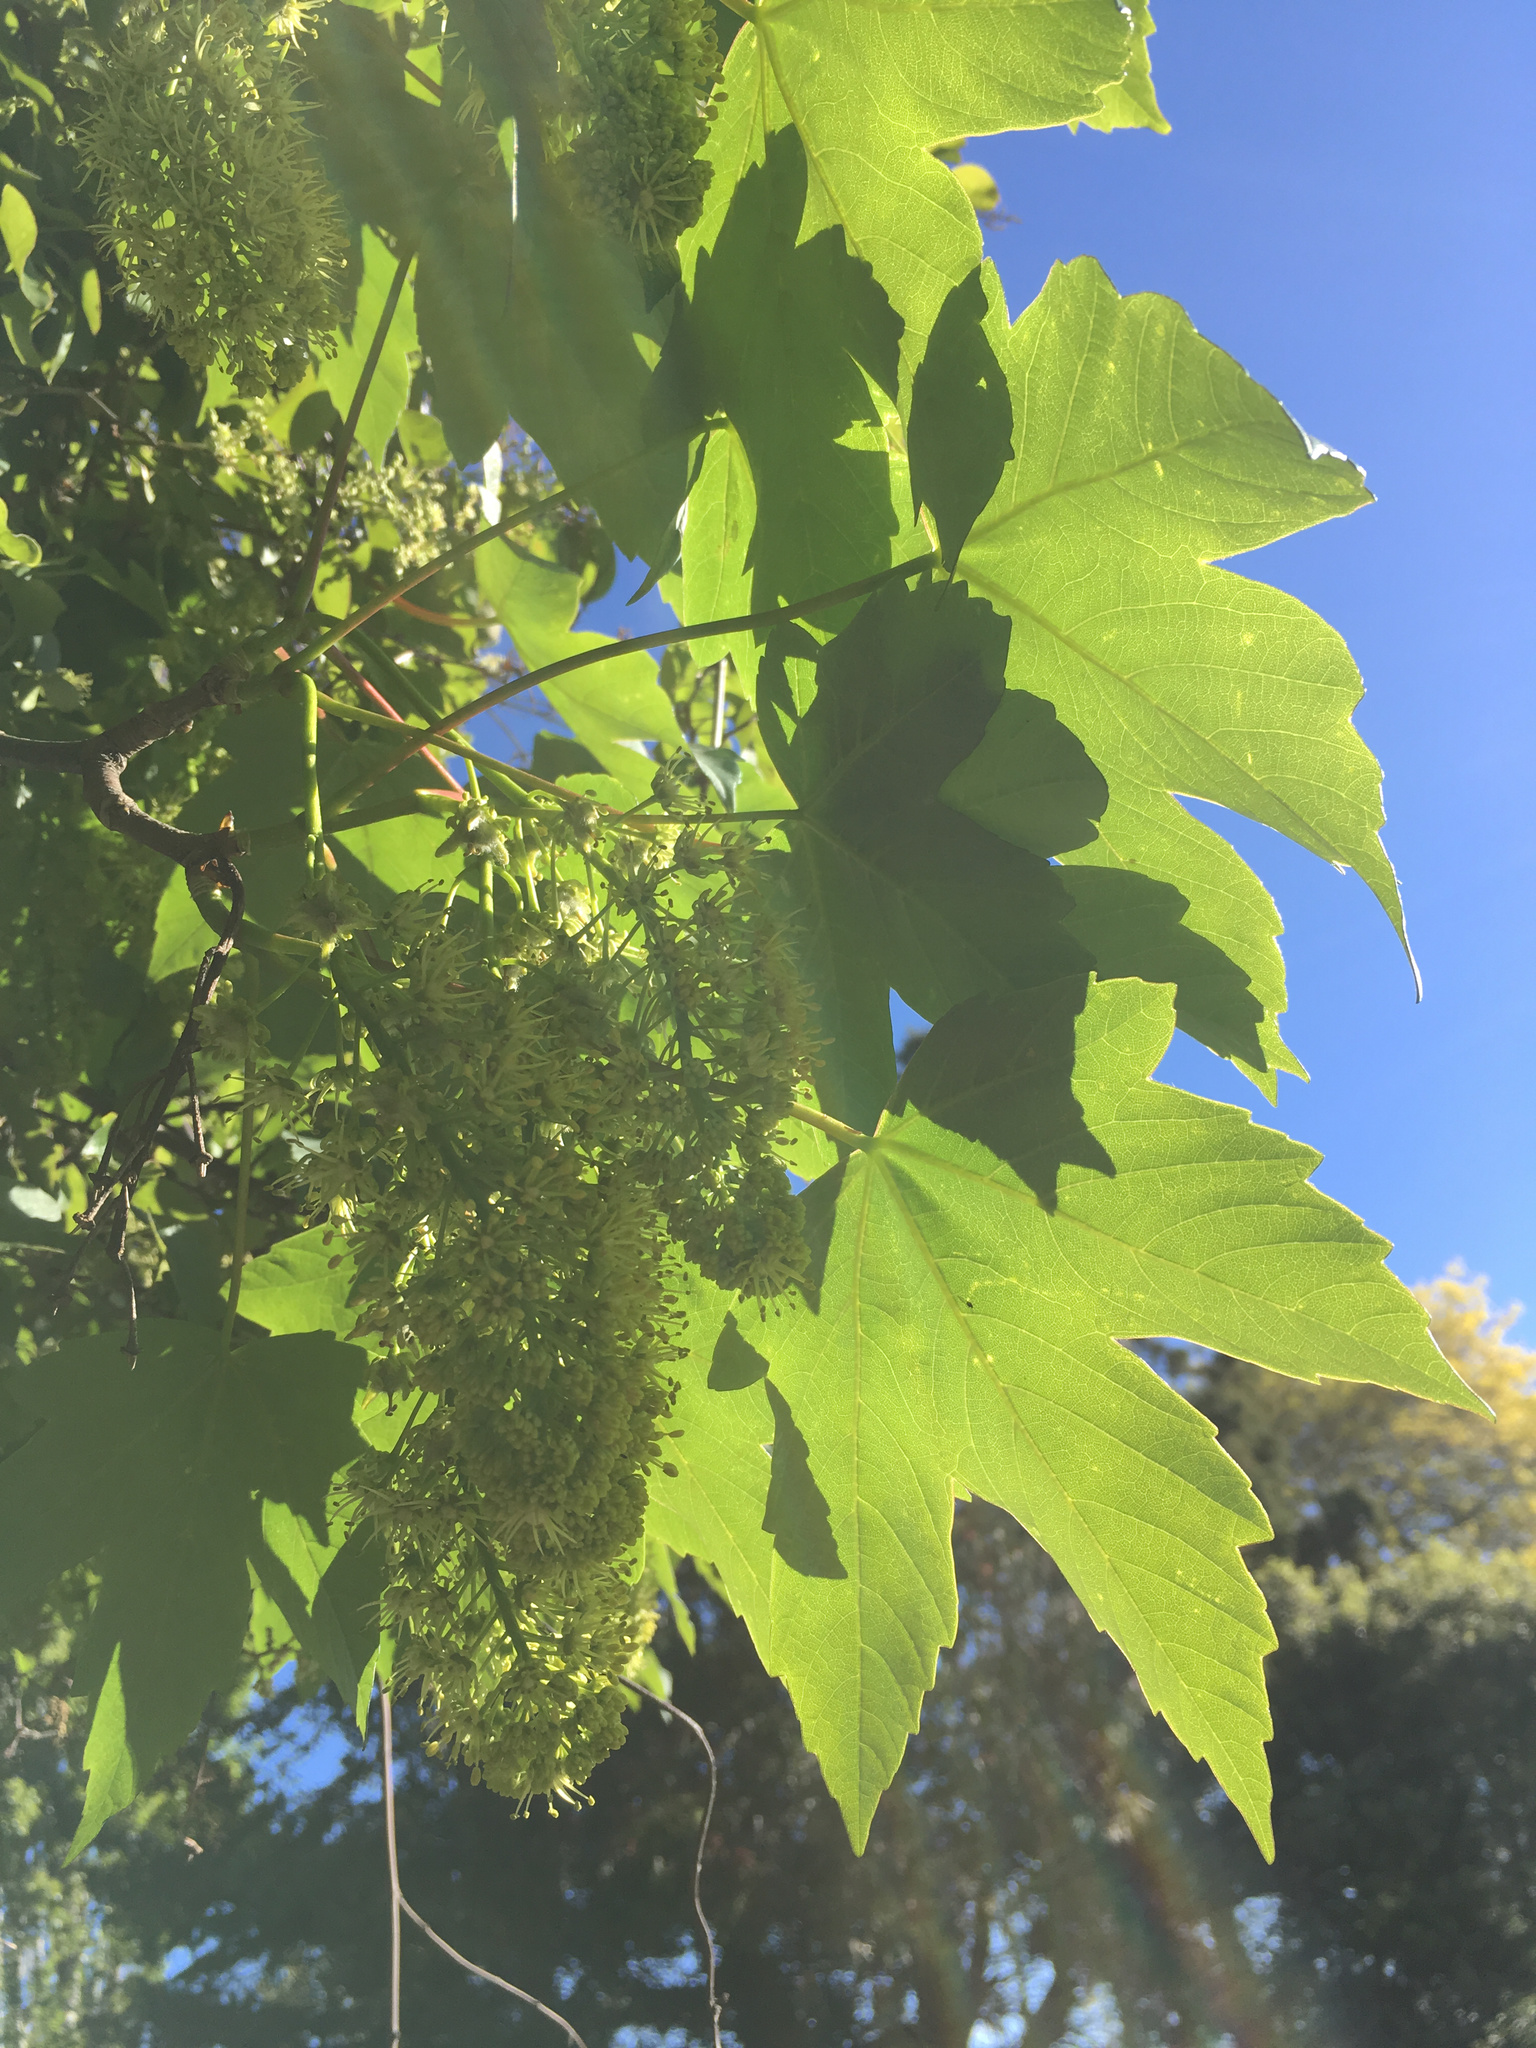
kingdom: Plantae
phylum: Tracheophyta
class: Magnoliopsida
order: Sapindales
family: Sapindaceae
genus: Acer
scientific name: Acer pseudoplatanus
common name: Sycamore
